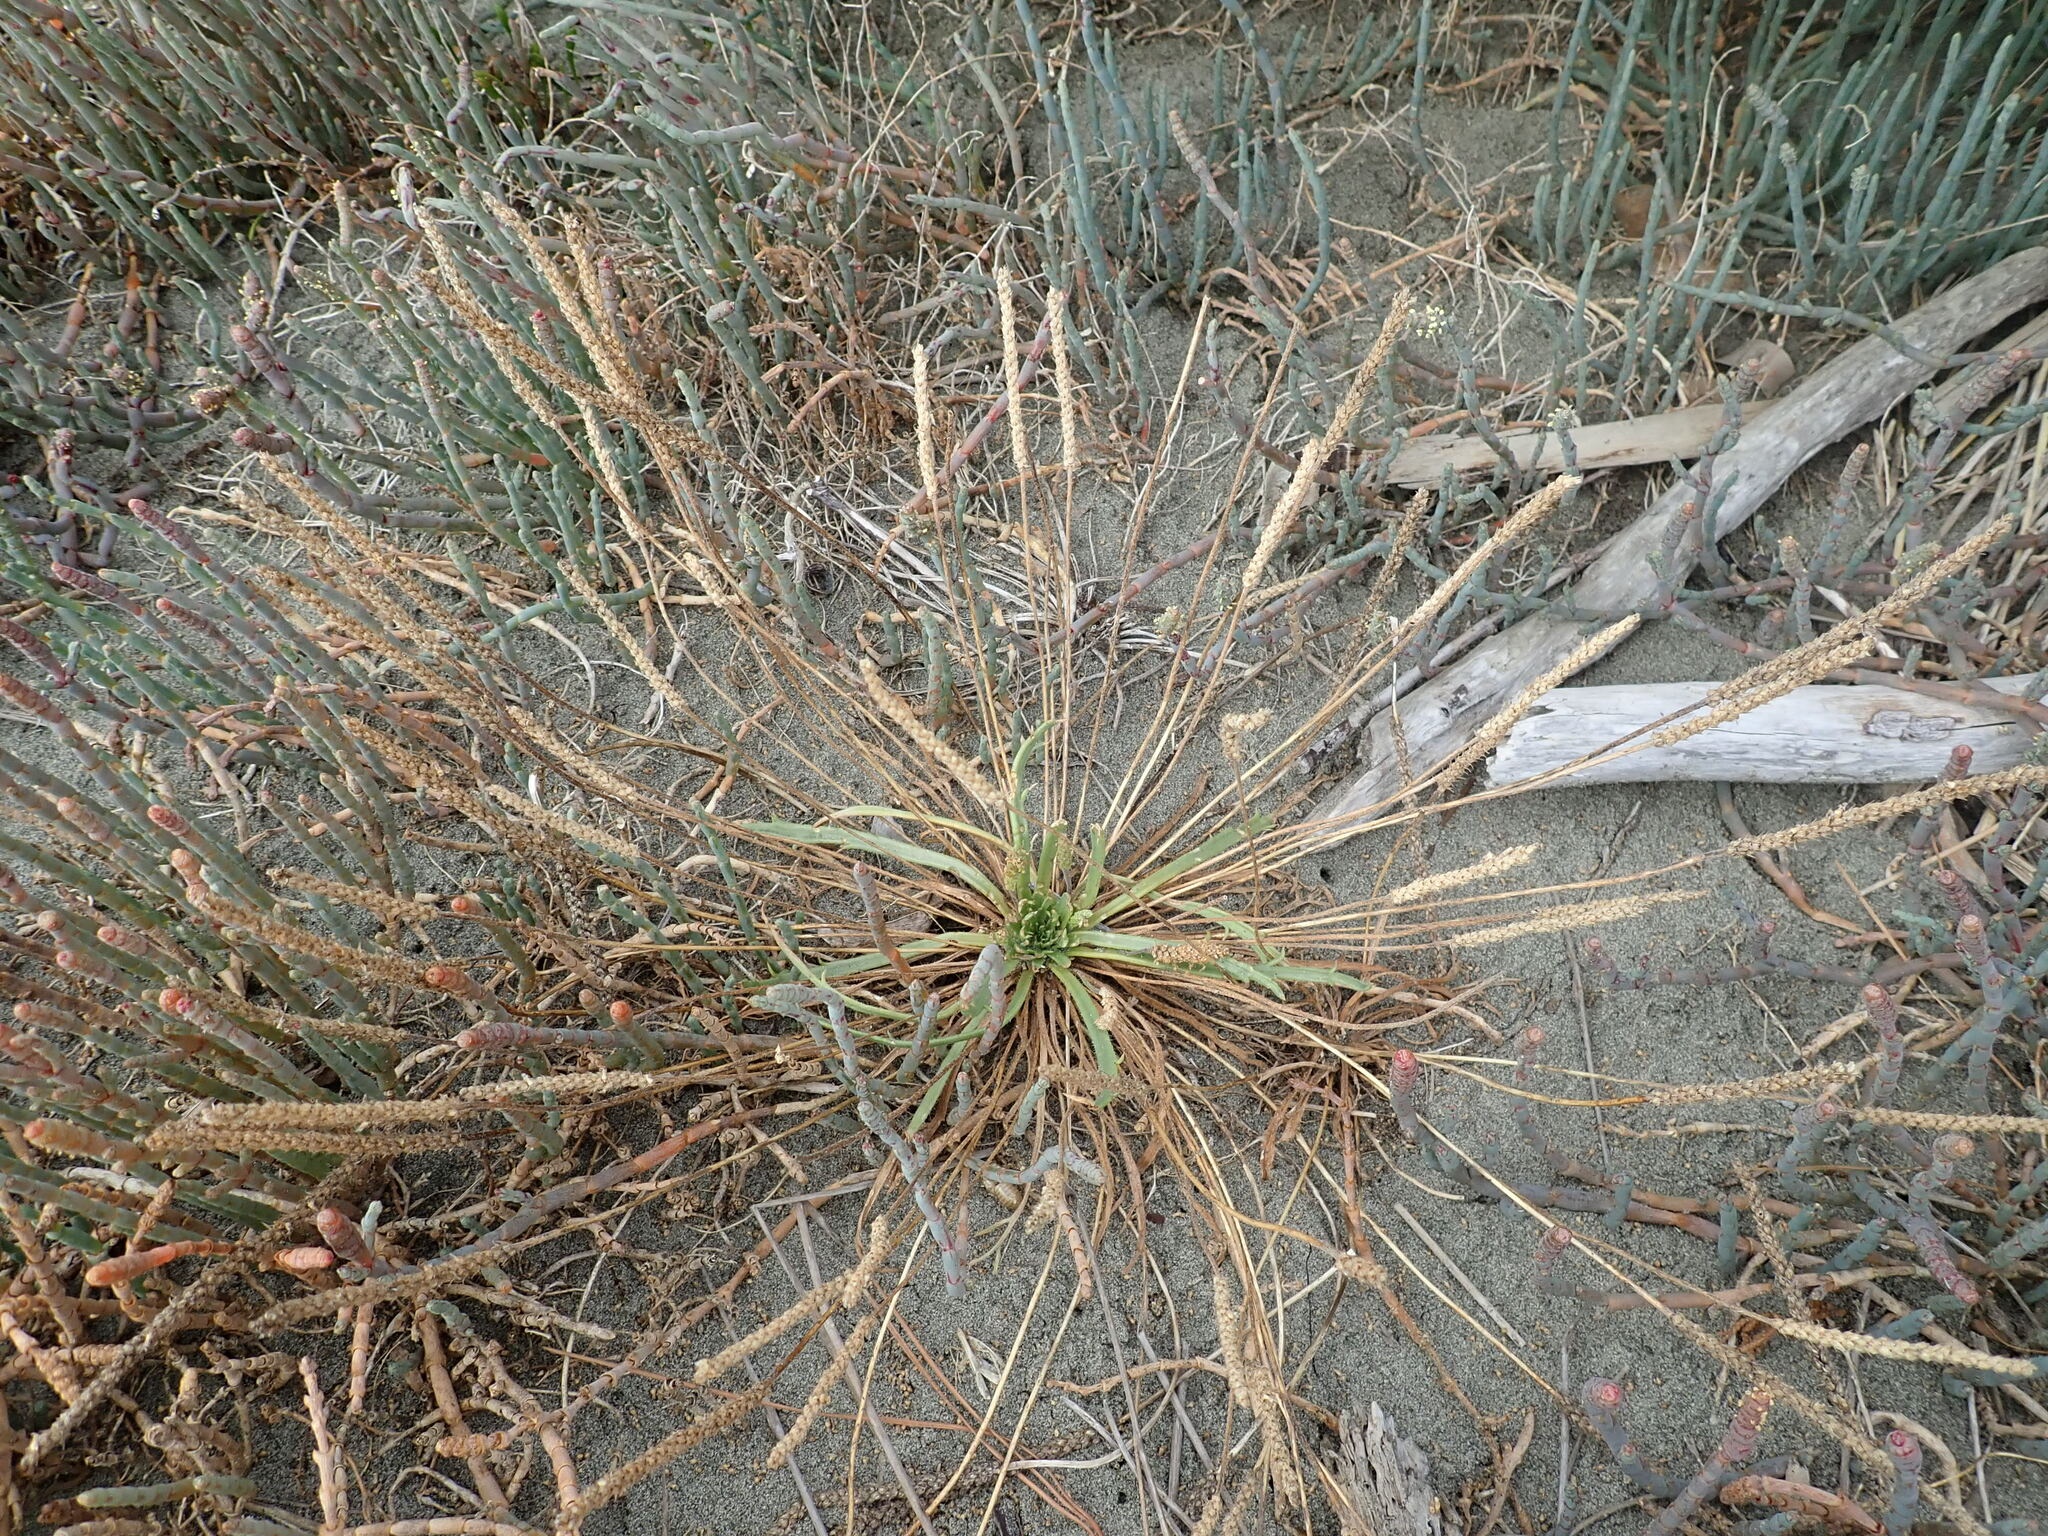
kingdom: Plantae
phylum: Tracheophyta
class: Magnoliopsida
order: Lamiales
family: Plantaginaceae
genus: Plantago
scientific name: Plantago coronopus
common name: Buck's-horn plantain
